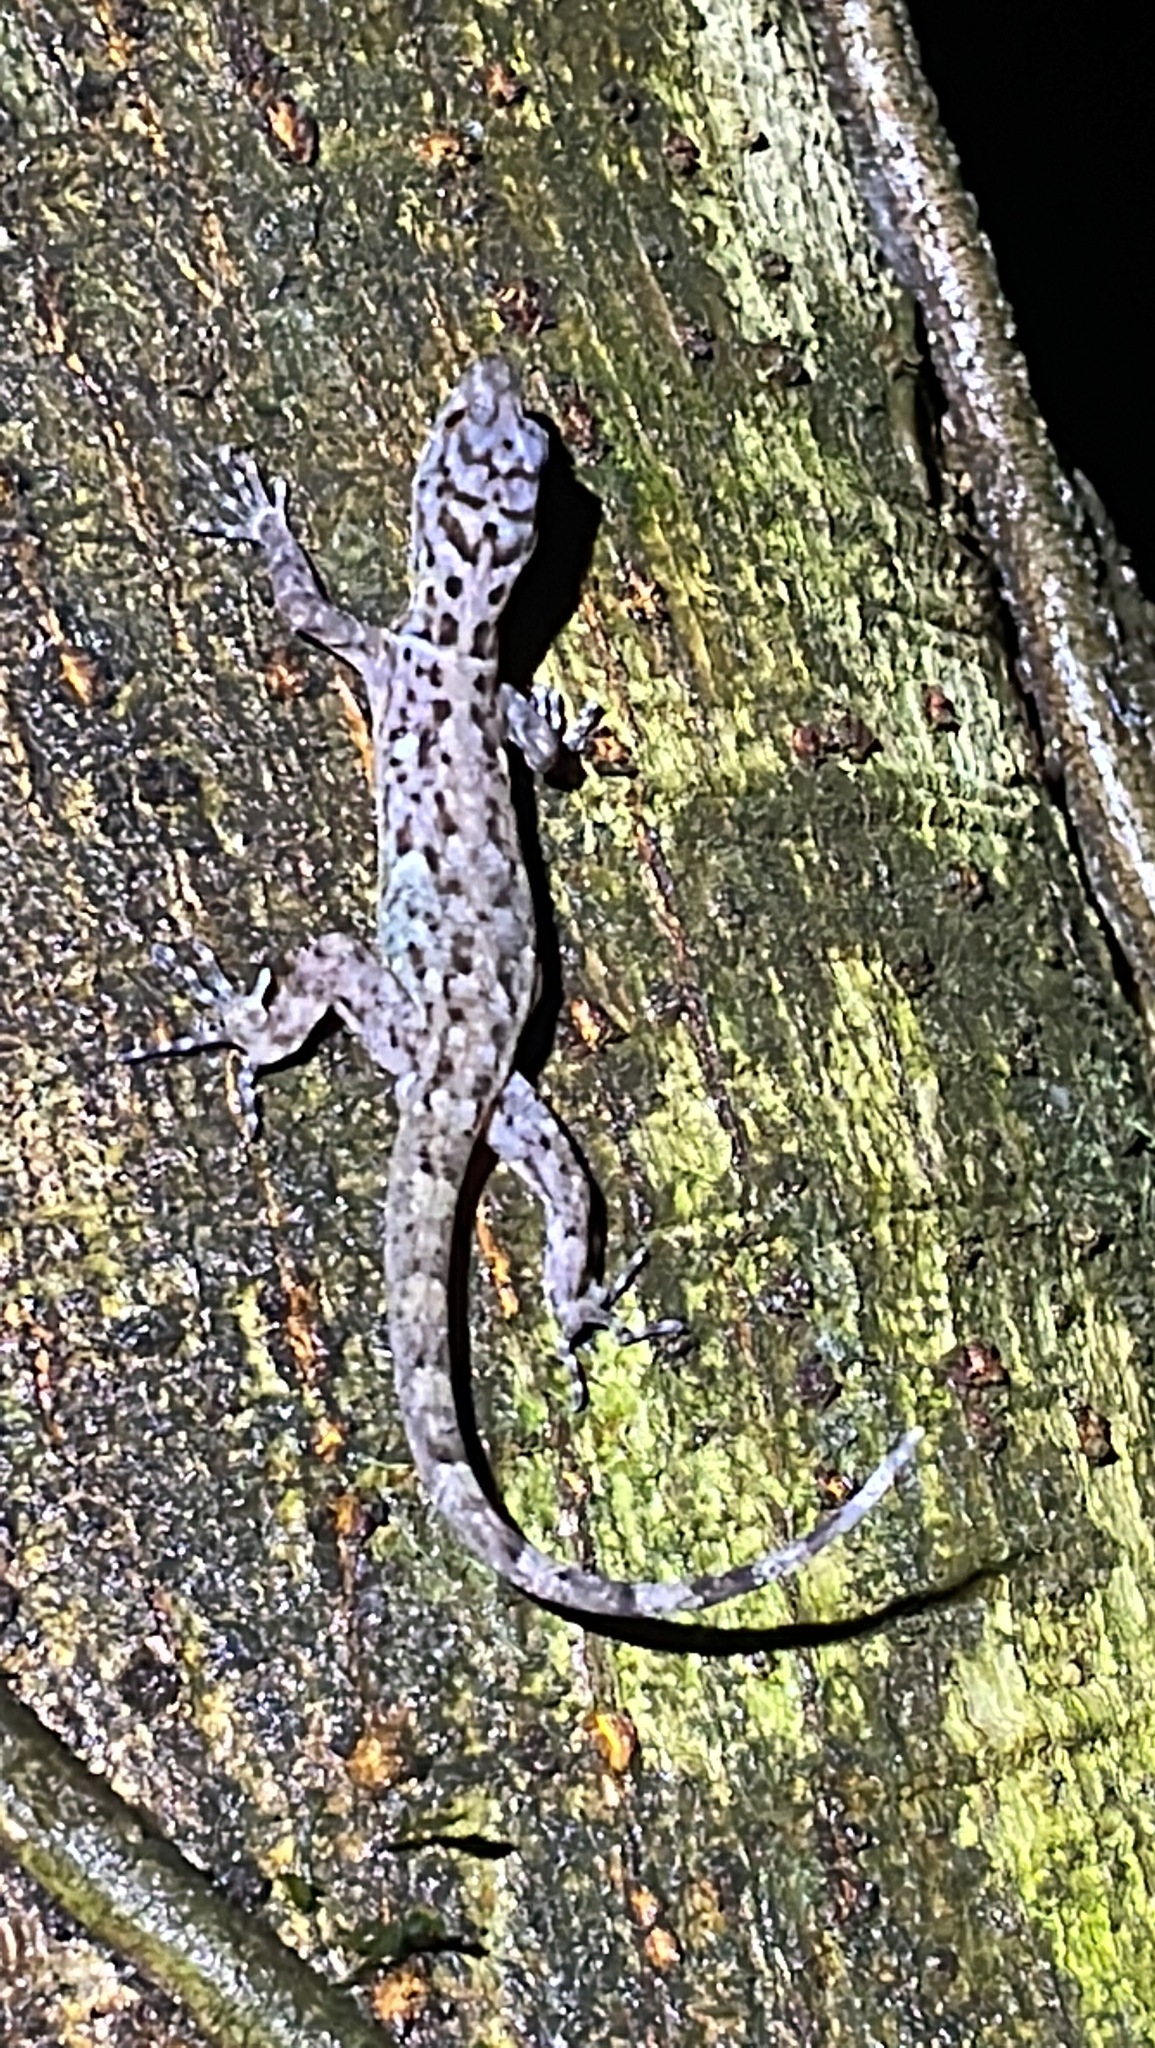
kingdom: Animalia
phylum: Chordata
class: Squamata
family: Sphaerodactylidae
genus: Gonatodes
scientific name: Gonatodes ocellatus
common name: Eyespot gecko
